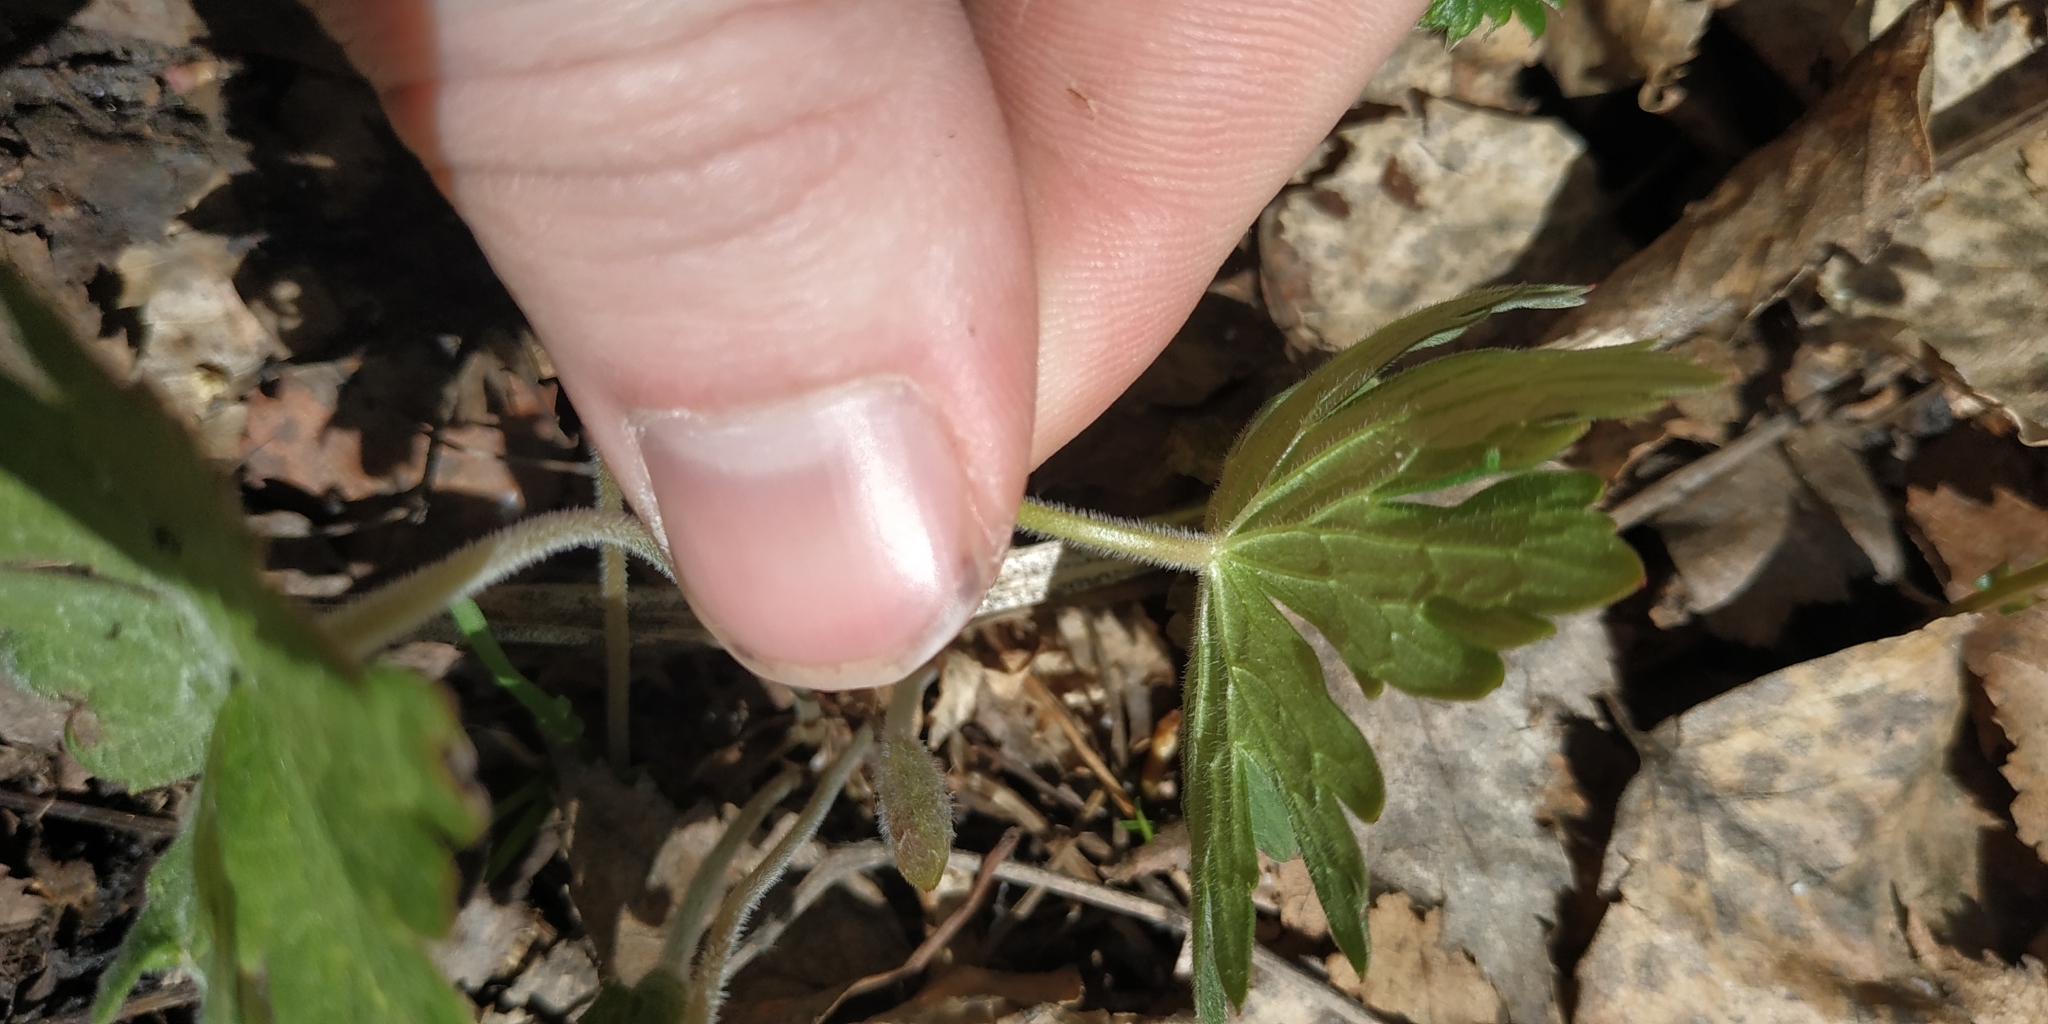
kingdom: Plantae
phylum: Tracheophyta
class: Magnoliopsida
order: Geraniales
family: Geraniaceae
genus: Geranium
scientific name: Geranium sylvaticum
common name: Wood crane's-bill
